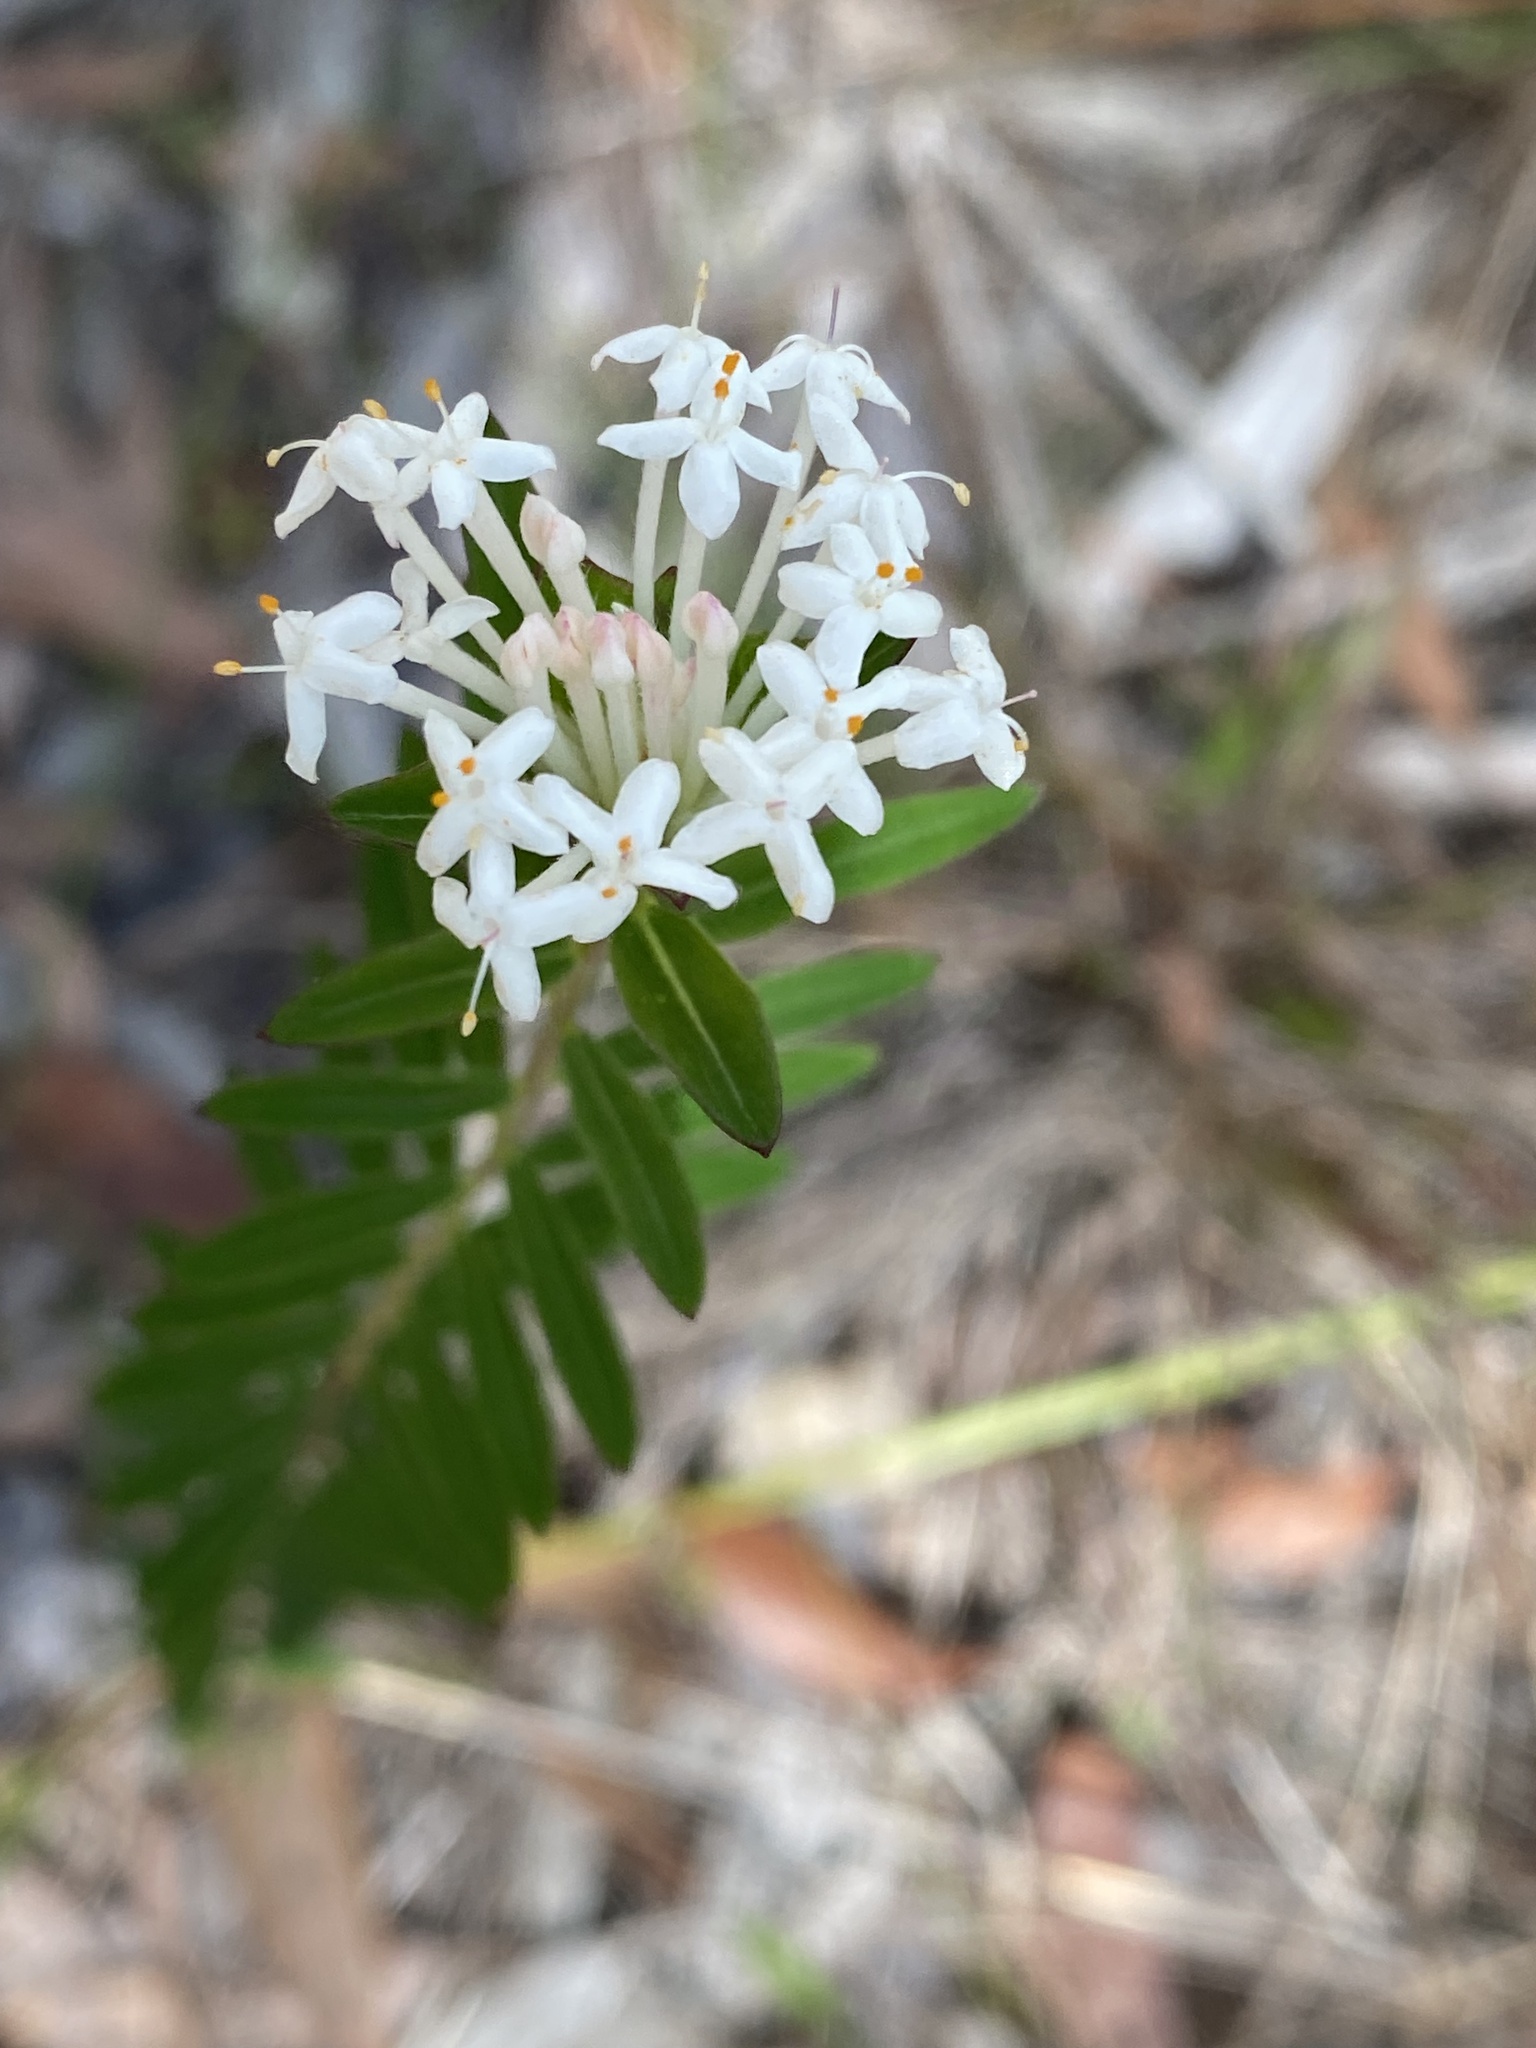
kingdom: Plantae
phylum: Tracheophyta
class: Magnoliopsida
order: Malvales
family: Thymelaeaceae
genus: Pimelea
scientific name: Pimelea linifolia
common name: Queen-of-the-bush
